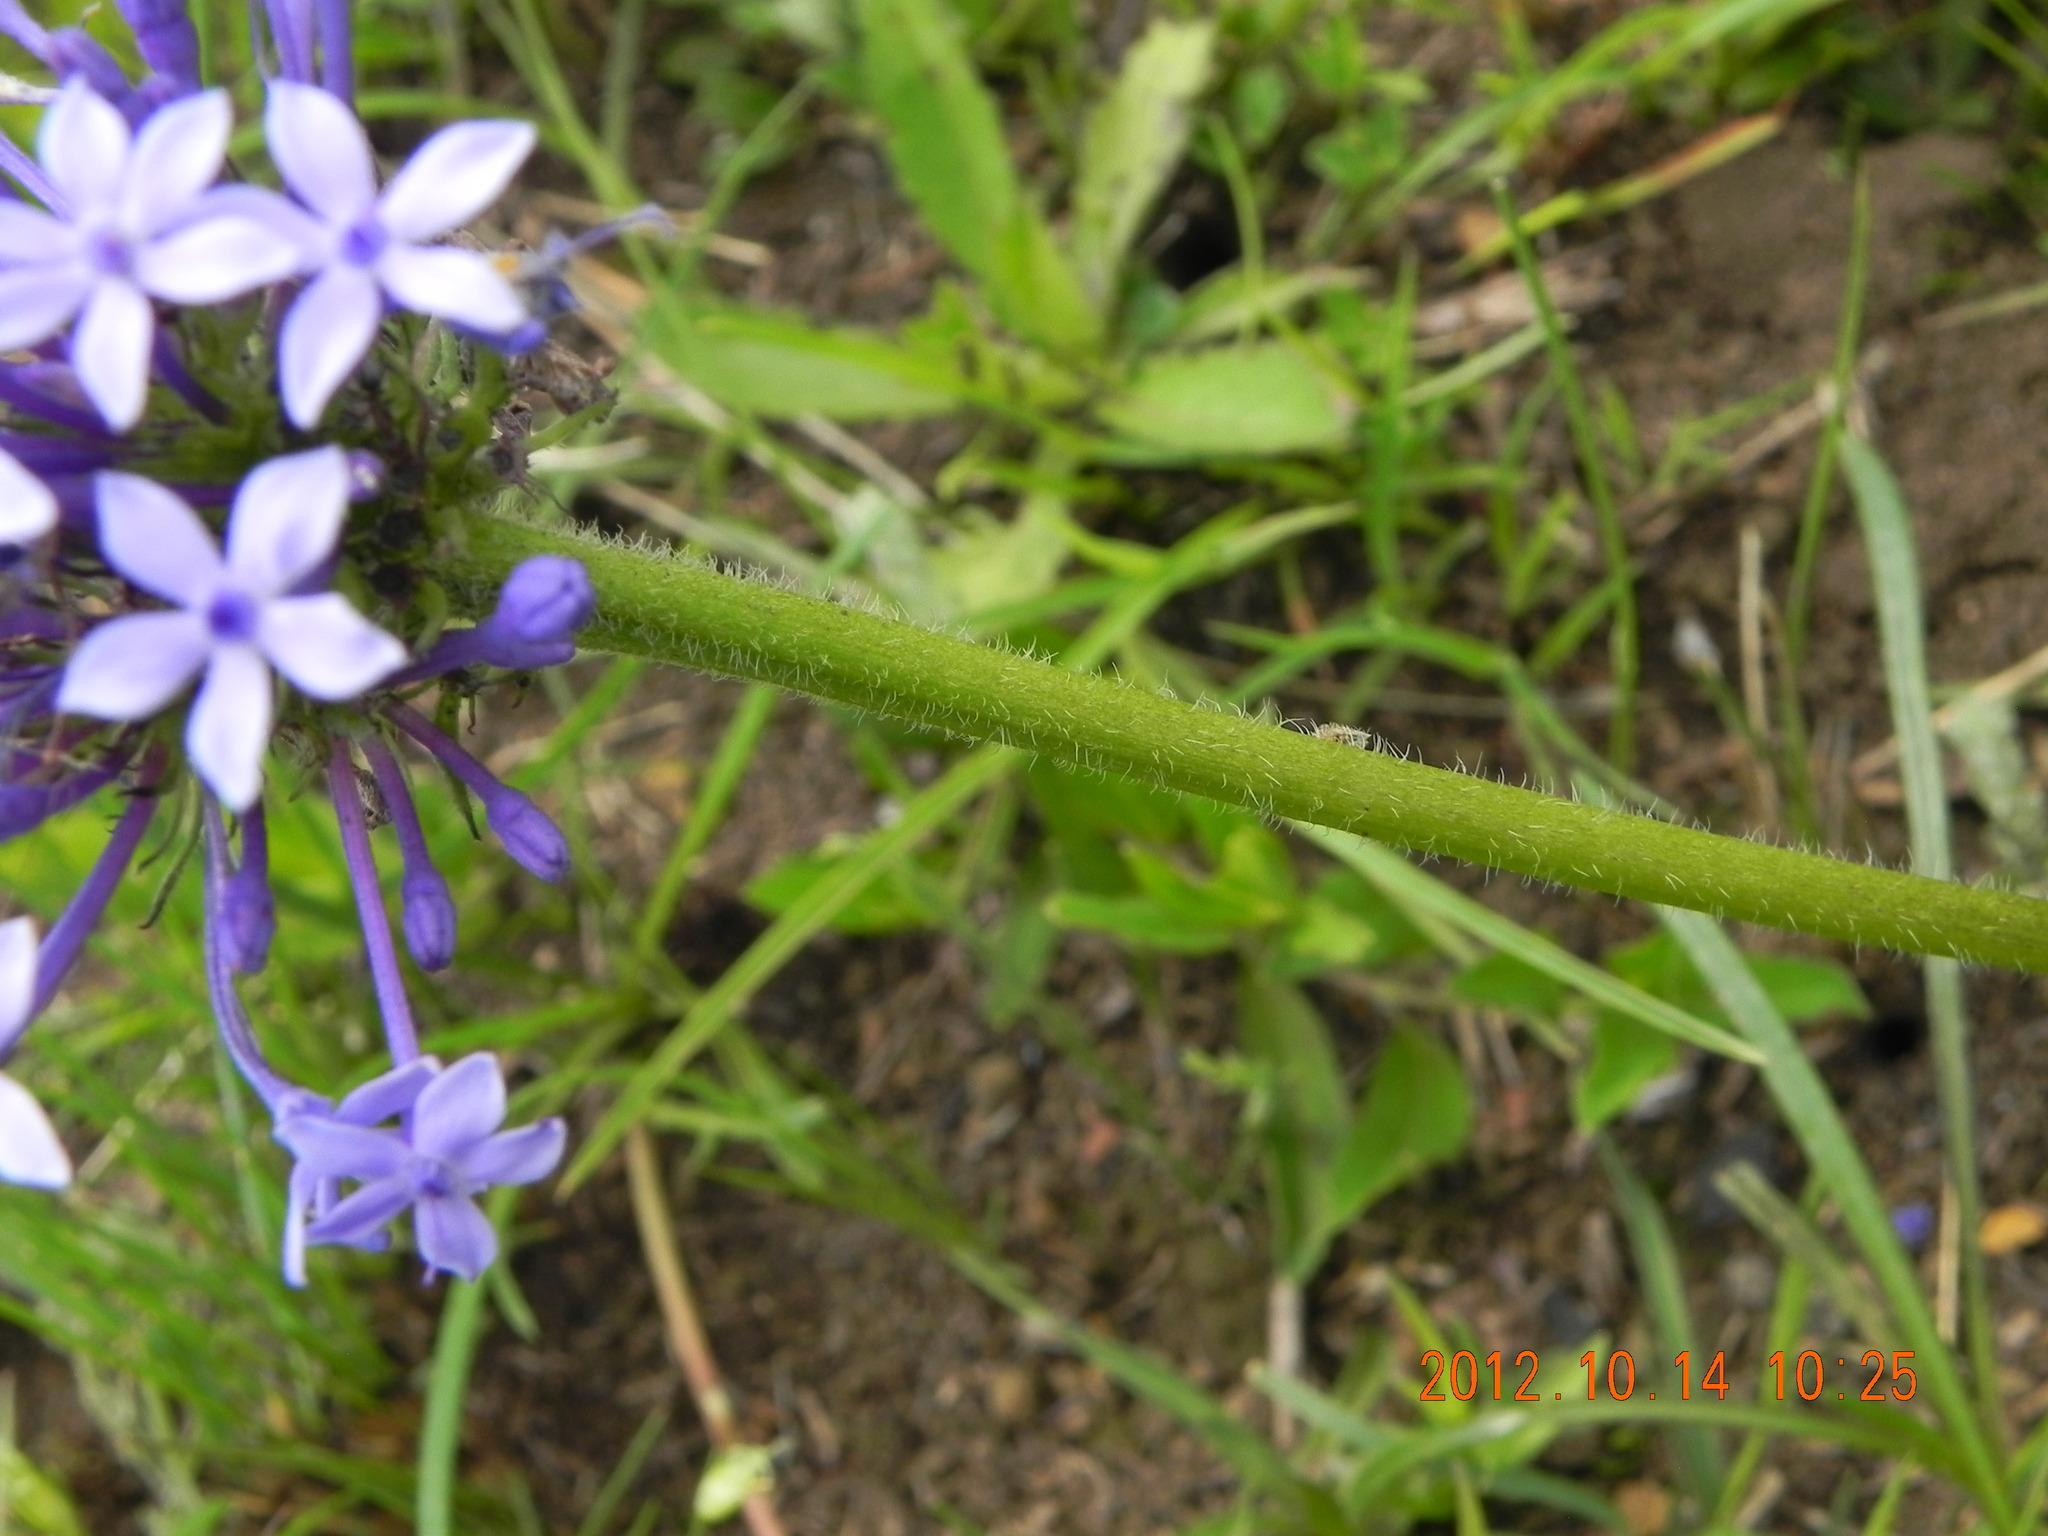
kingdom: Plantae
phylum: Tracheophyta
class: Magnoliopsida
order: Gentianales
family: Rubiaceae
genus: Pentanisia
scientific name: Pentanisia prunelloides
